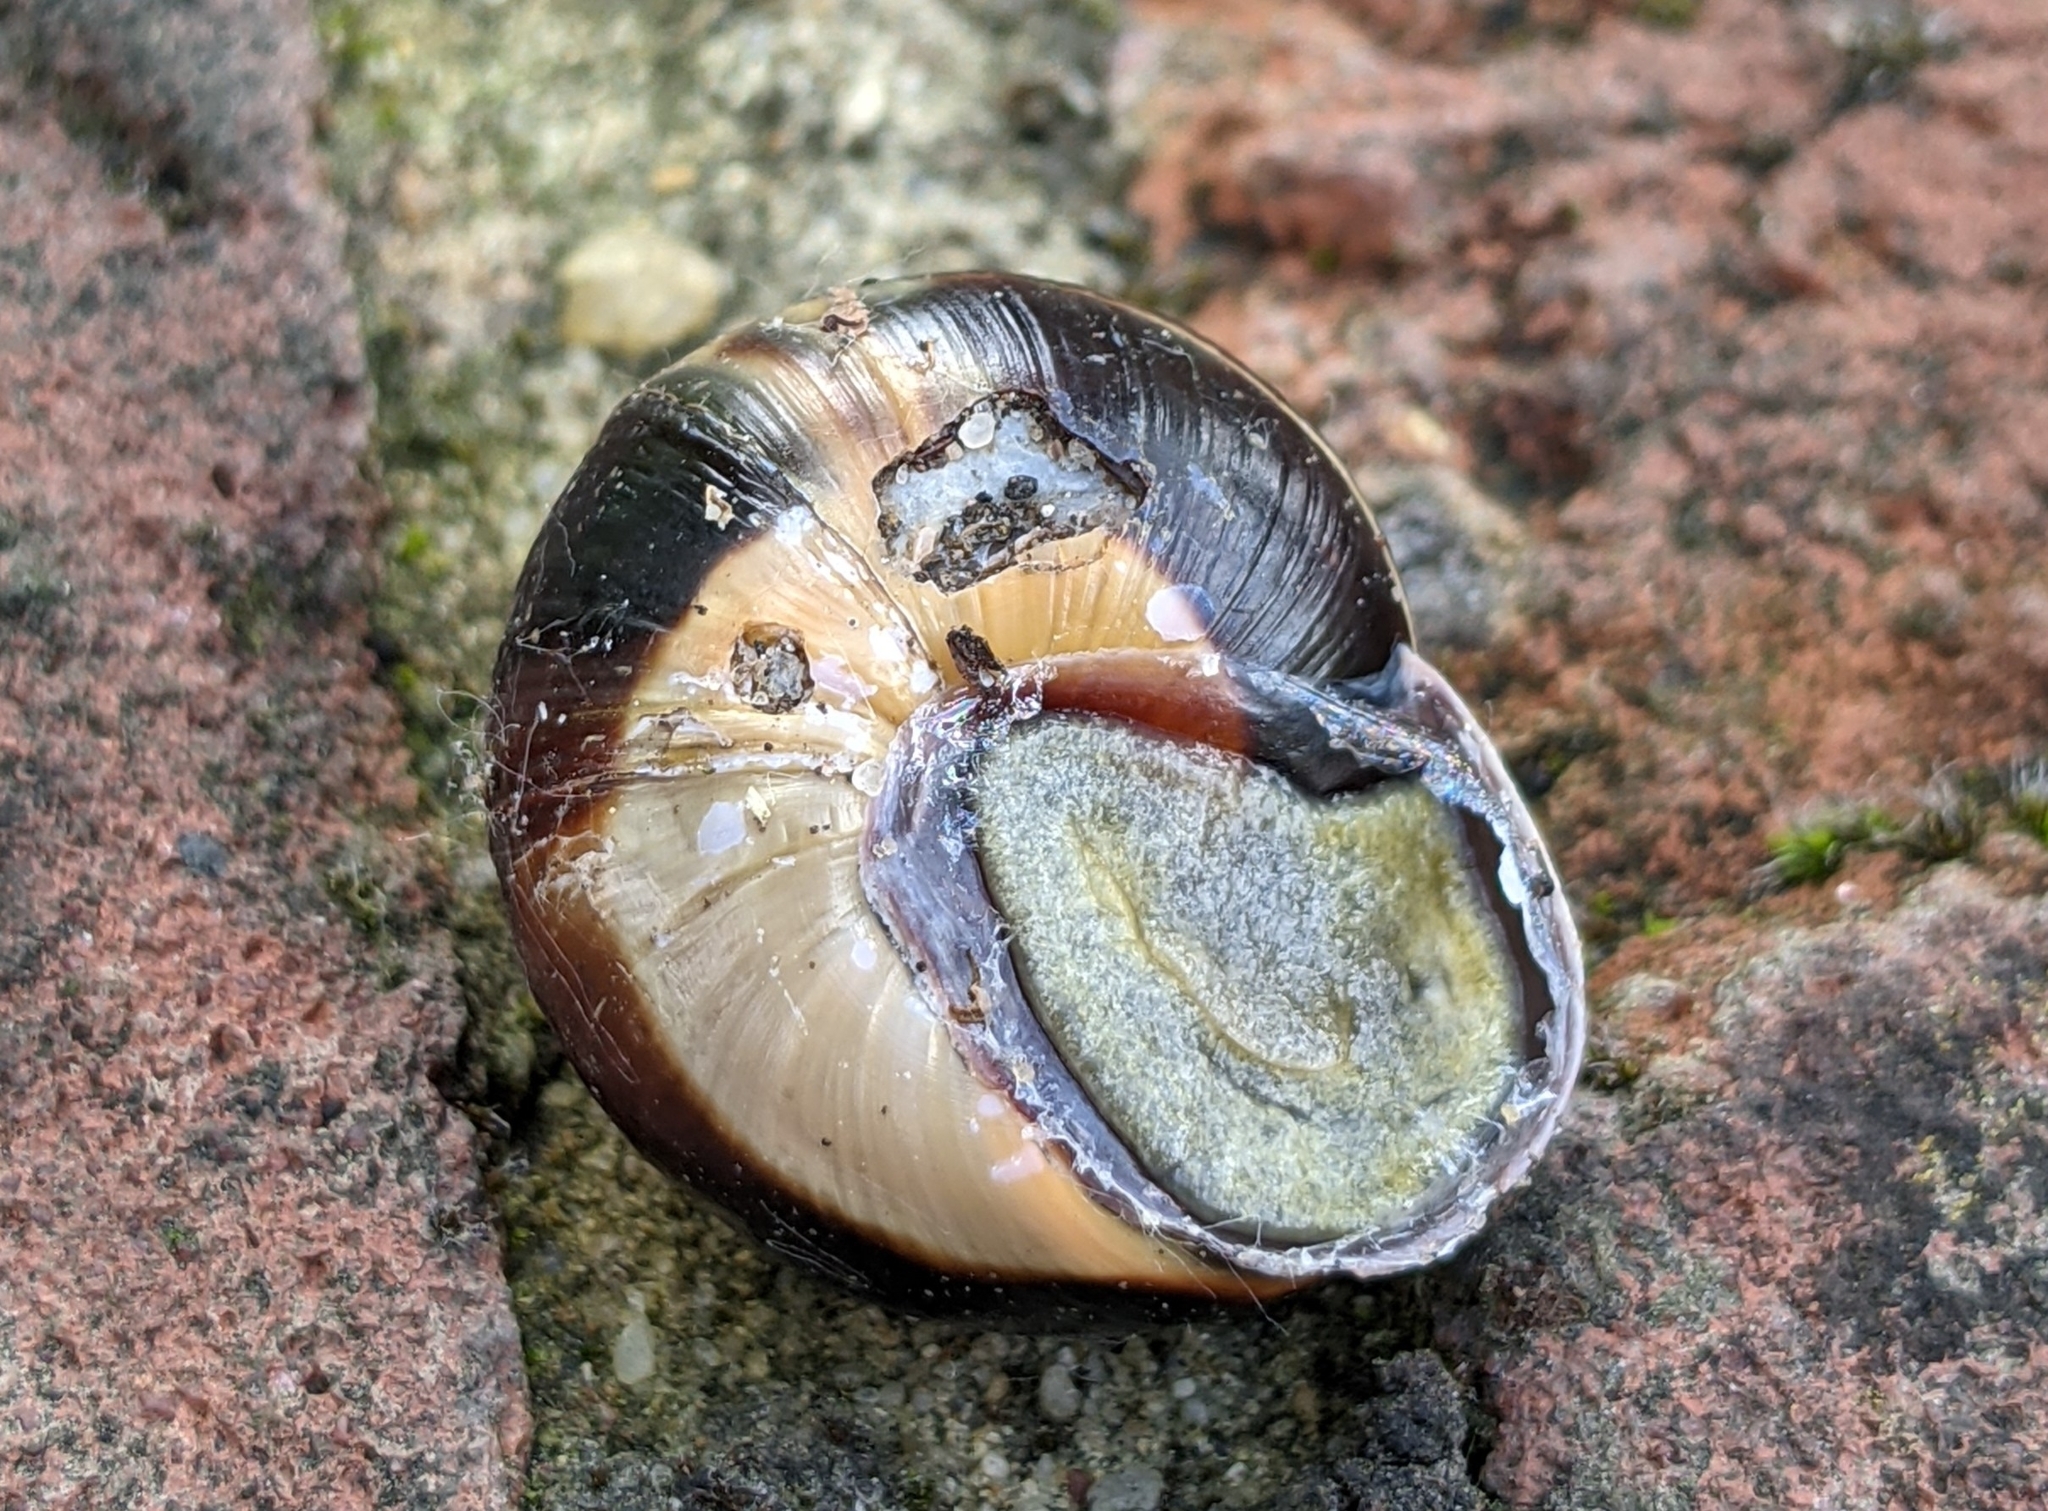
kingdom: Animalia
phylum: Mollusca
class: Gastropoda
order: Stylommatophora
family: Helicidae
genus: Cepaea
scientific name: Cepaea nemoralis
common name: Grovesnail
